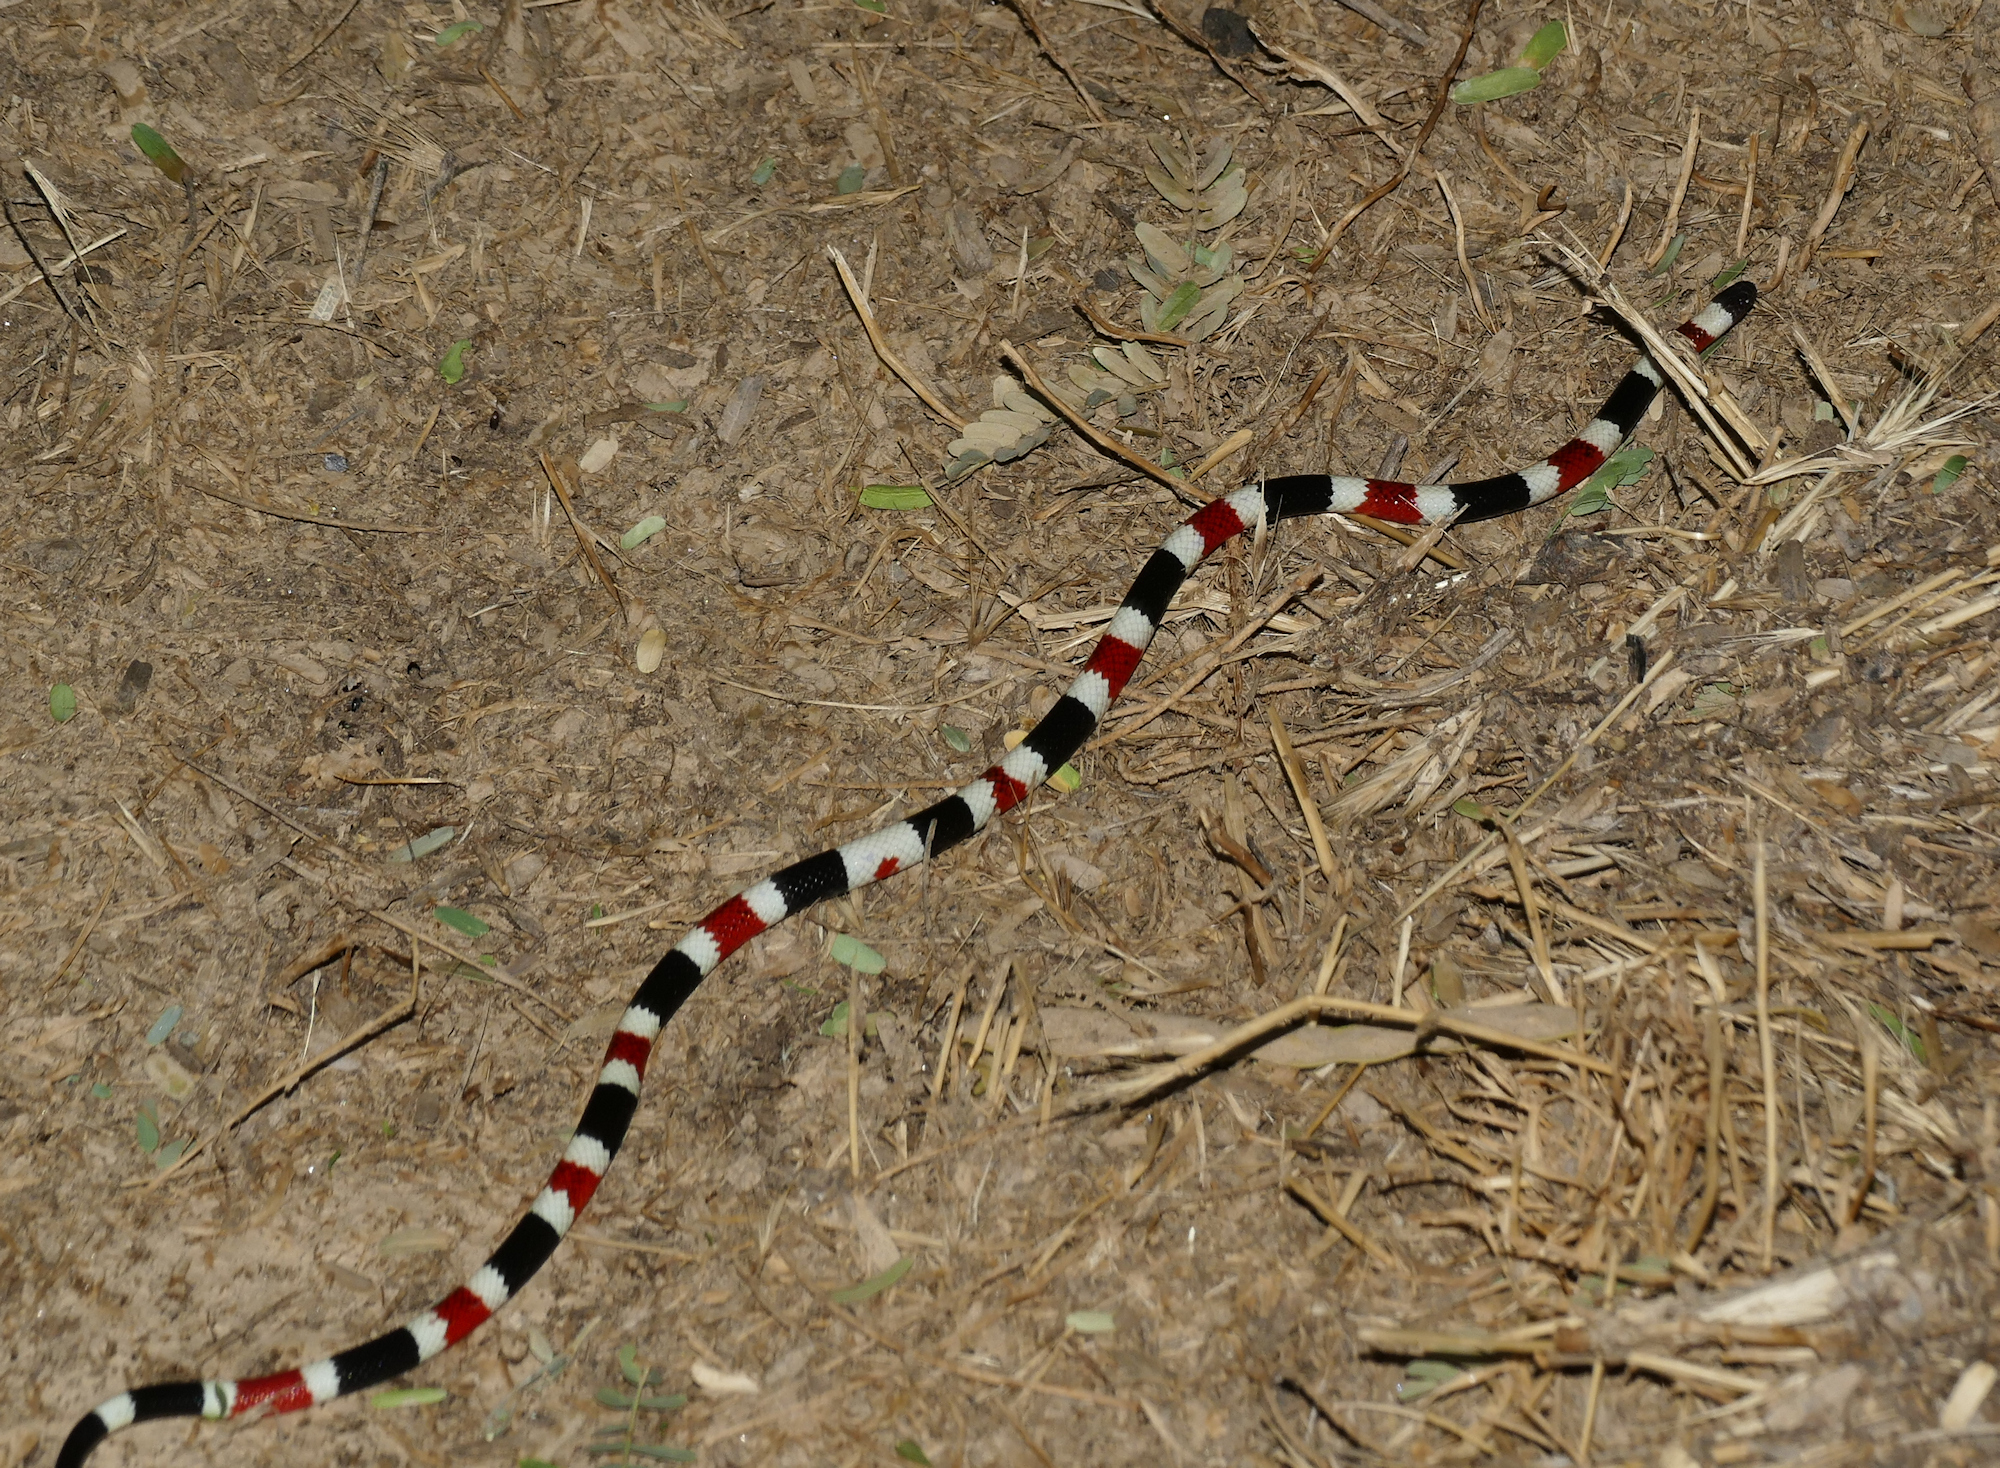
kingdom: Animalia
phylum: Chordata
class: Squamata
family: Elapidae
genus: Micruroides
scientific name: Micruroides euryxanthus
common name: Western coral snake
